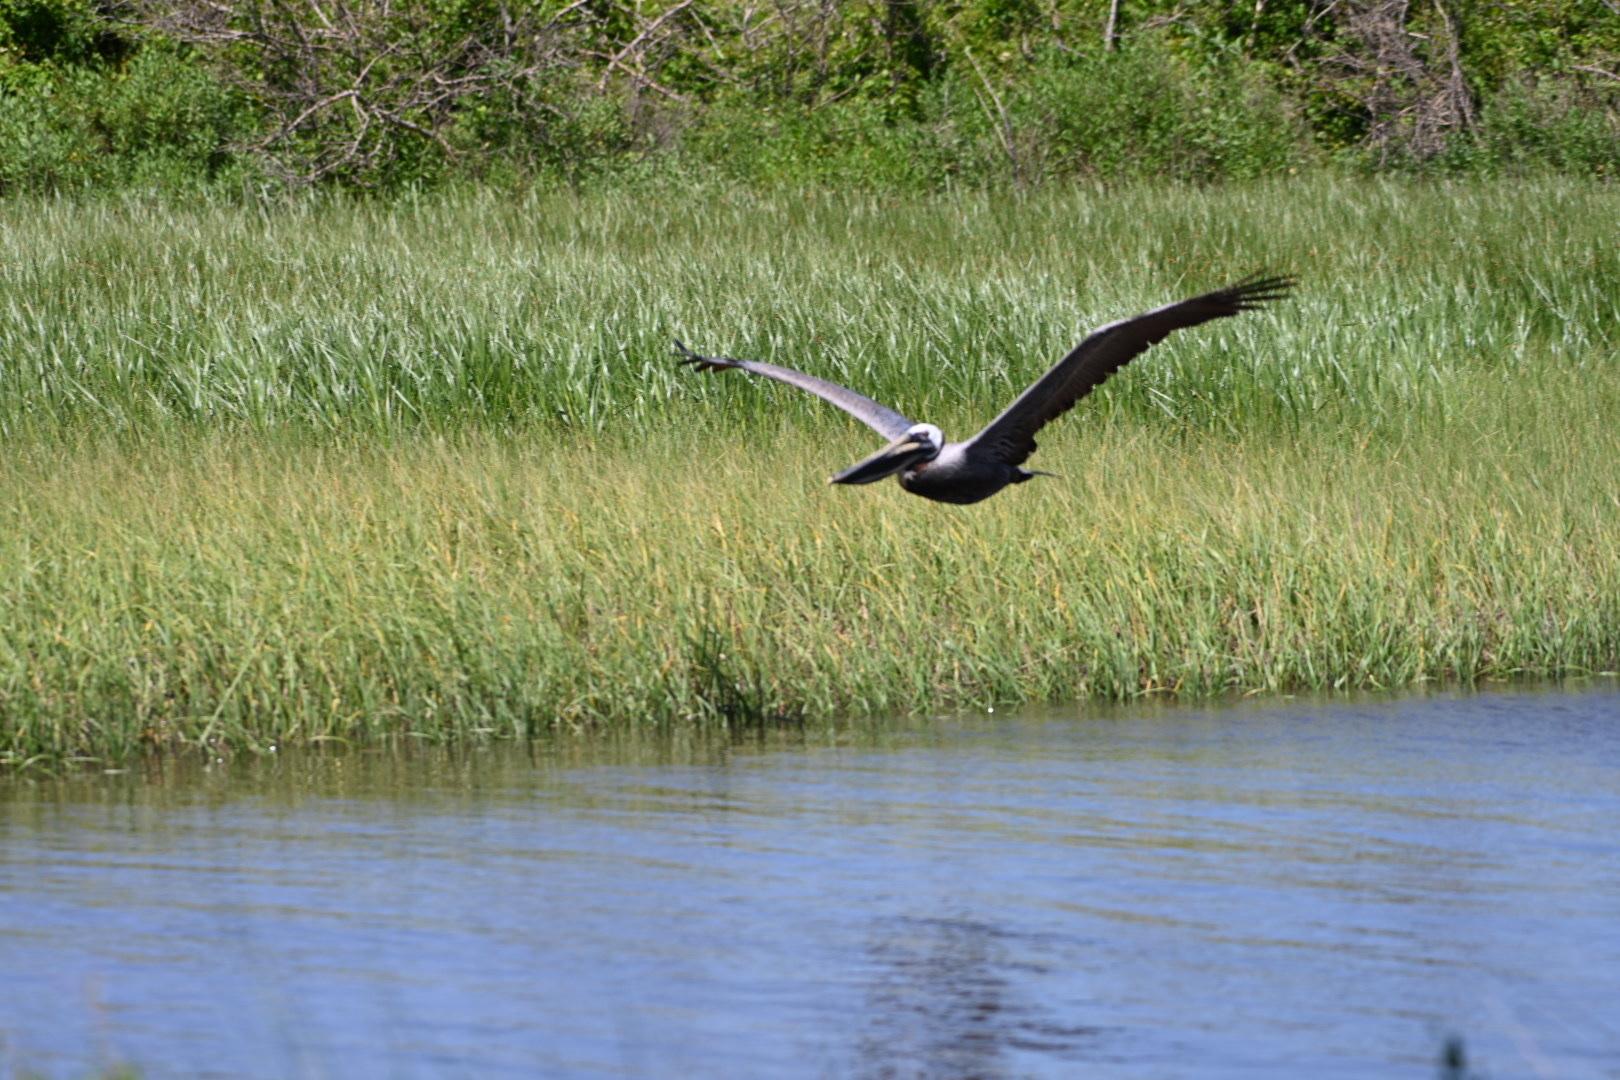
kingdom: Animalia
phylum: Chordata
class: Aves
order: Pelecaniformes
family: Pelecanidae
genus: Pelecanus
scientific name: Pelecanus occidentalis
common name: Brown pelican
